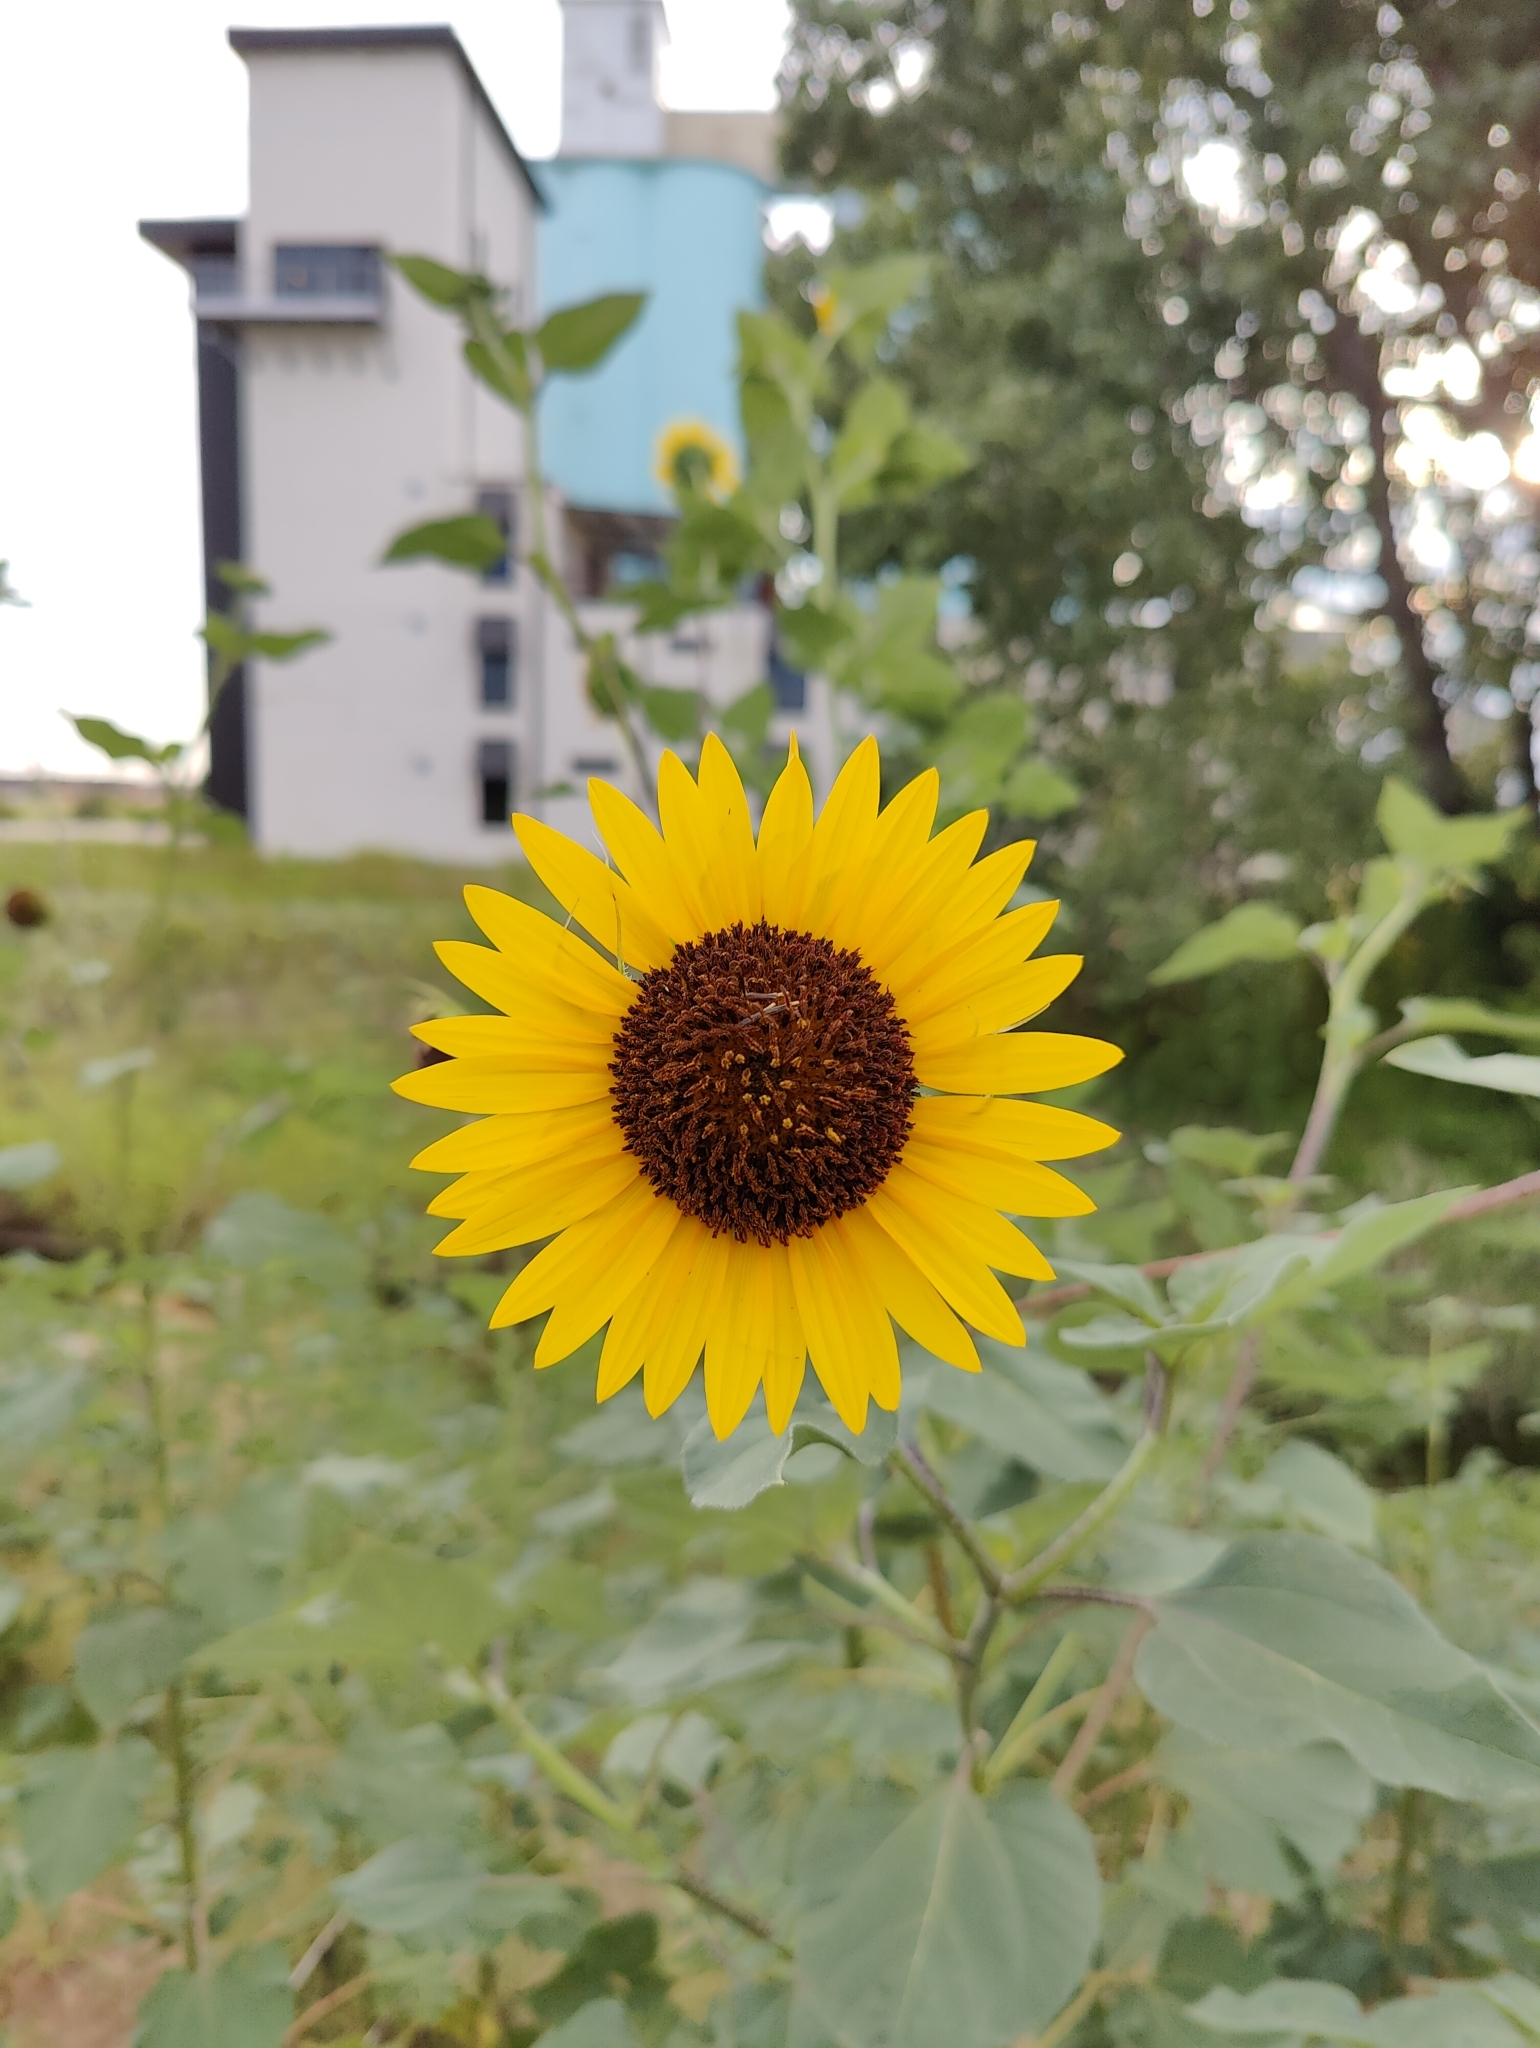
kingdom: Plantae
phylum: Tracheophyta
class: Magnoliopsida
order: Asterales
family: Asteraceae
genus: Helianthus
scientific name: Helianthus annuus
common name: Sunflower
